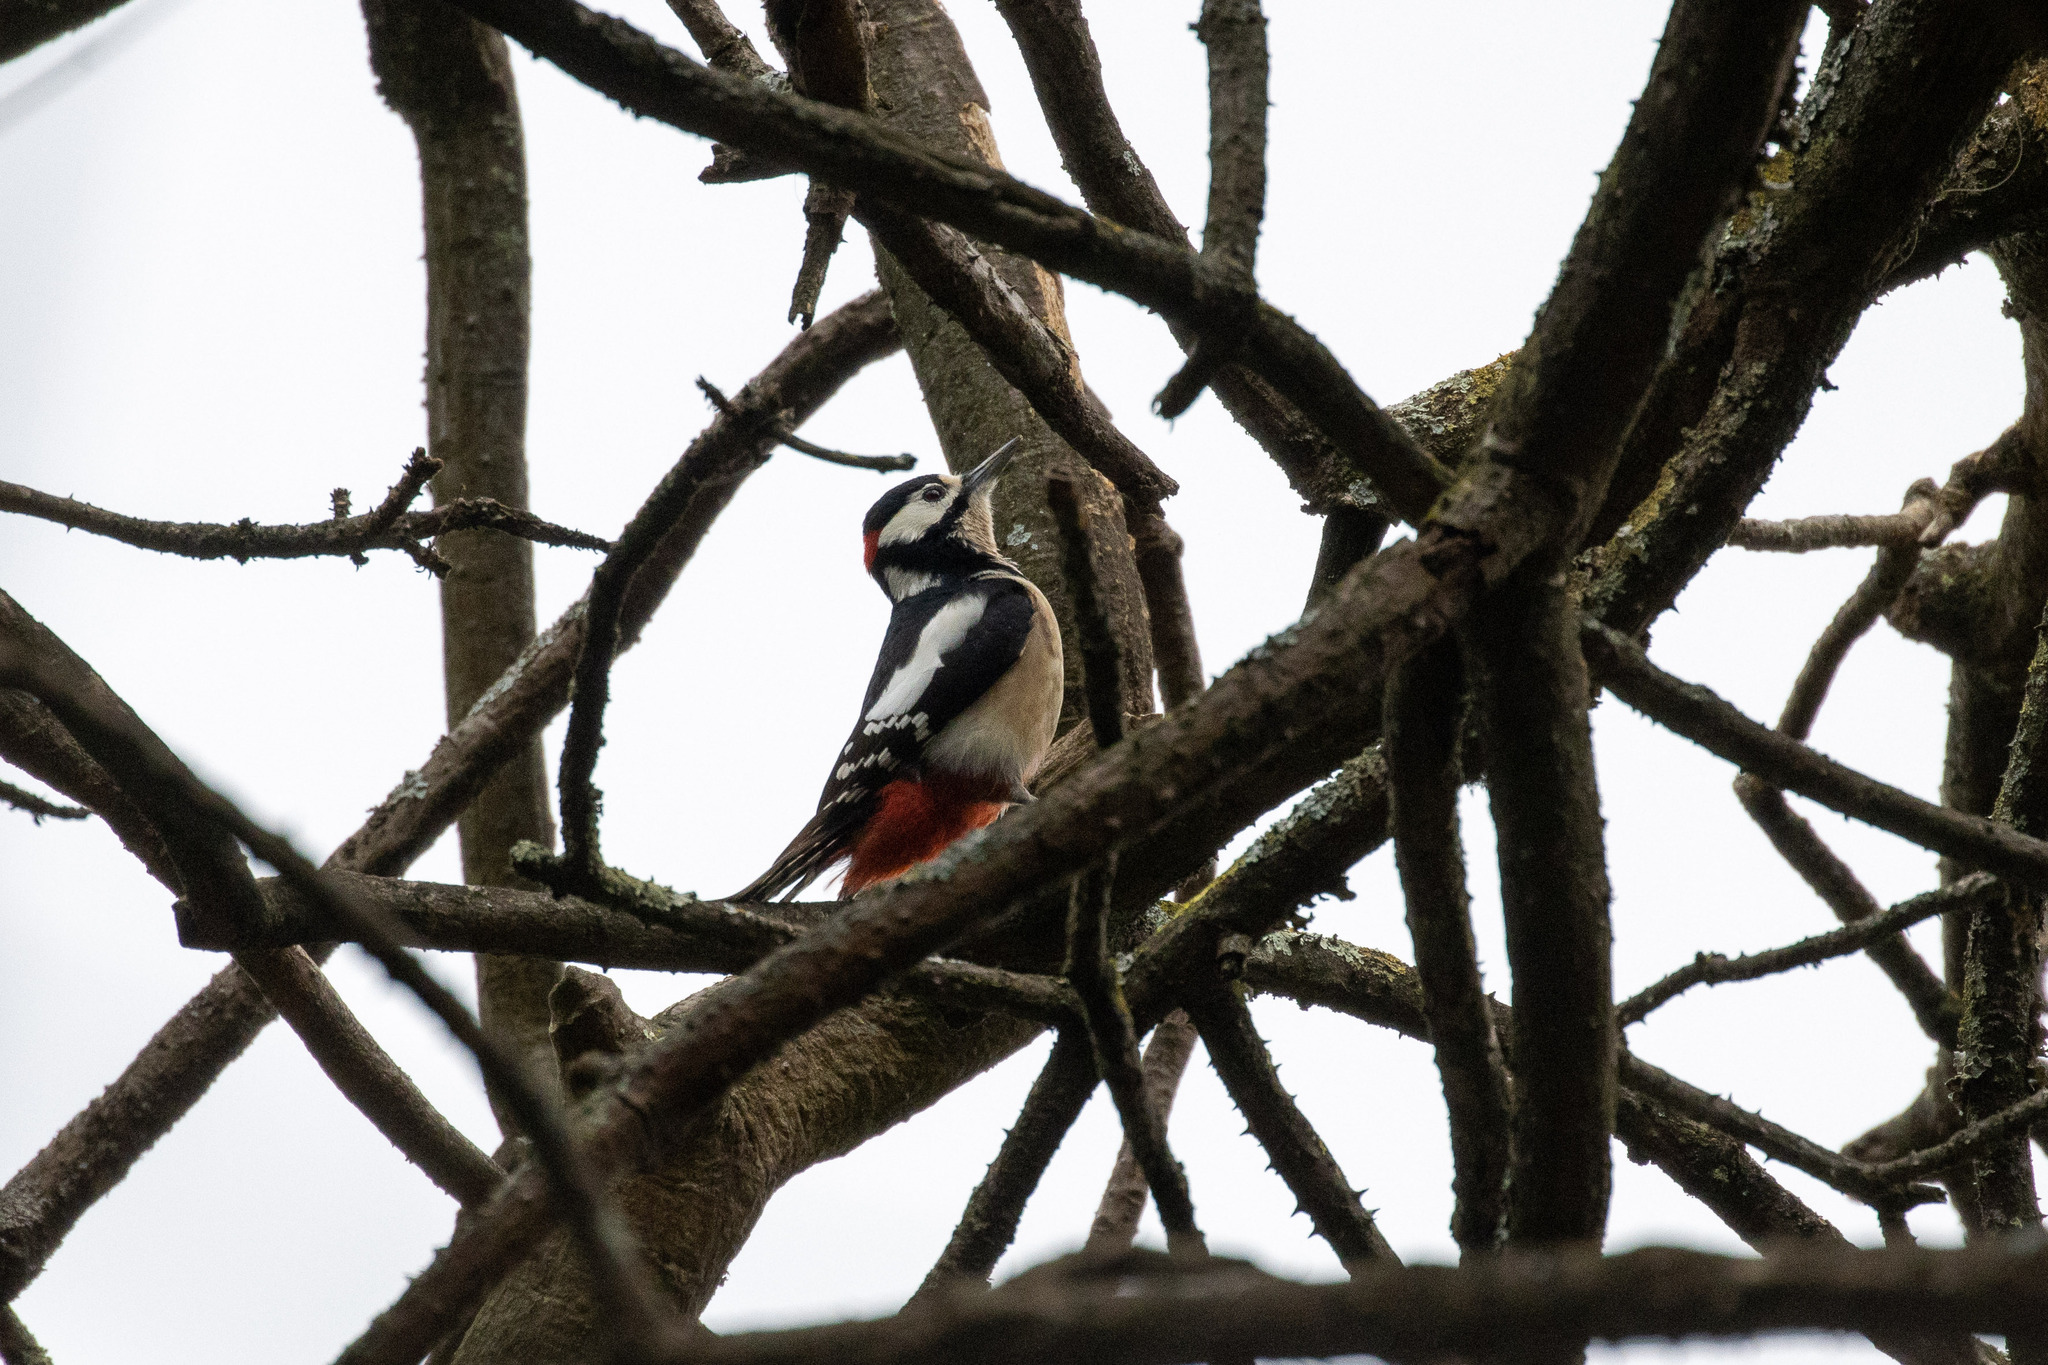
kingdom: Animalia
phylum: Chordata
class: Aves
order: Piciformes
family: Picidae
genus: Dendrocopos
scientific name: Dendrocopos major
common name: Great spotted woodpecker
